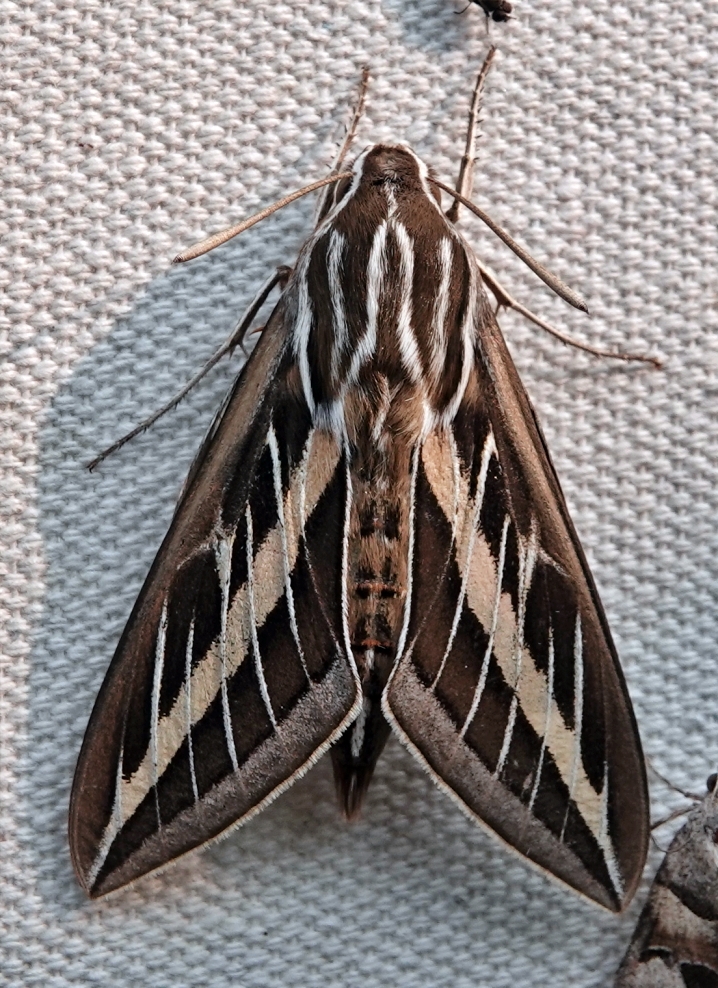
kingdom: Animalia
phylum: Arthropoda
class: Insecta
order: Lepidoptera
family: Sphingidae
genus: Hyles
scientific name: Hyles lineata
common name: White-lined sphinx
